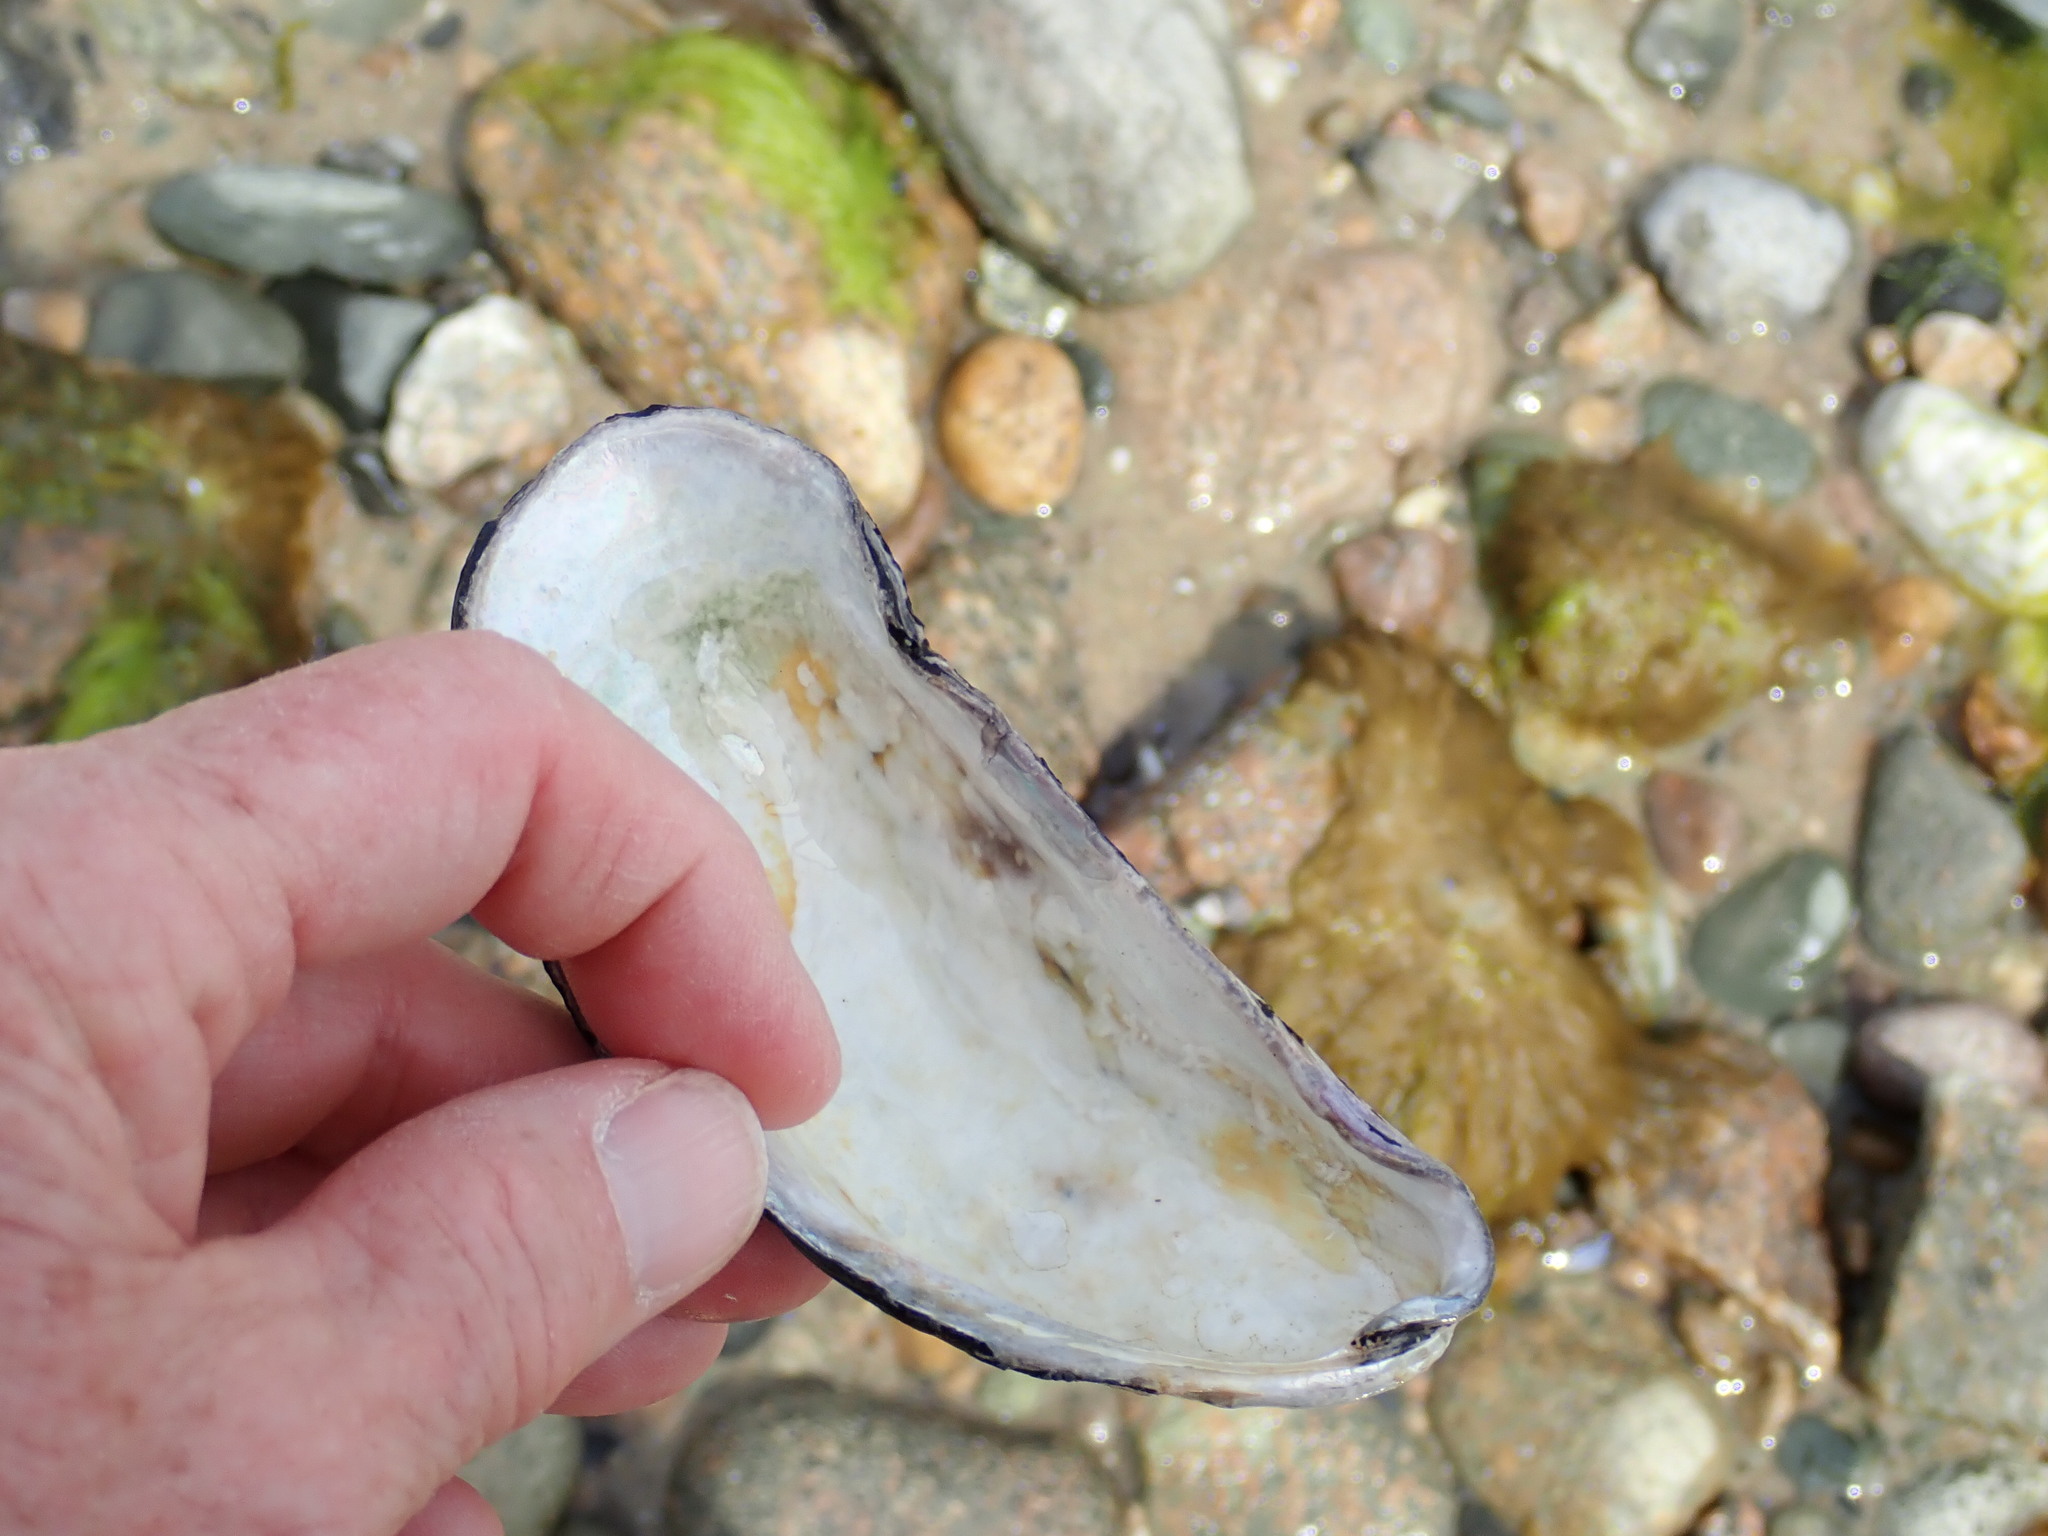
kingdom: Animalia
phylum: Mollusca
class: Bivalvia
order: Mytilida
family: Mytilidae
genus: Mytilus
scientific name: Mytilus edulis
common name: Blue mussel
